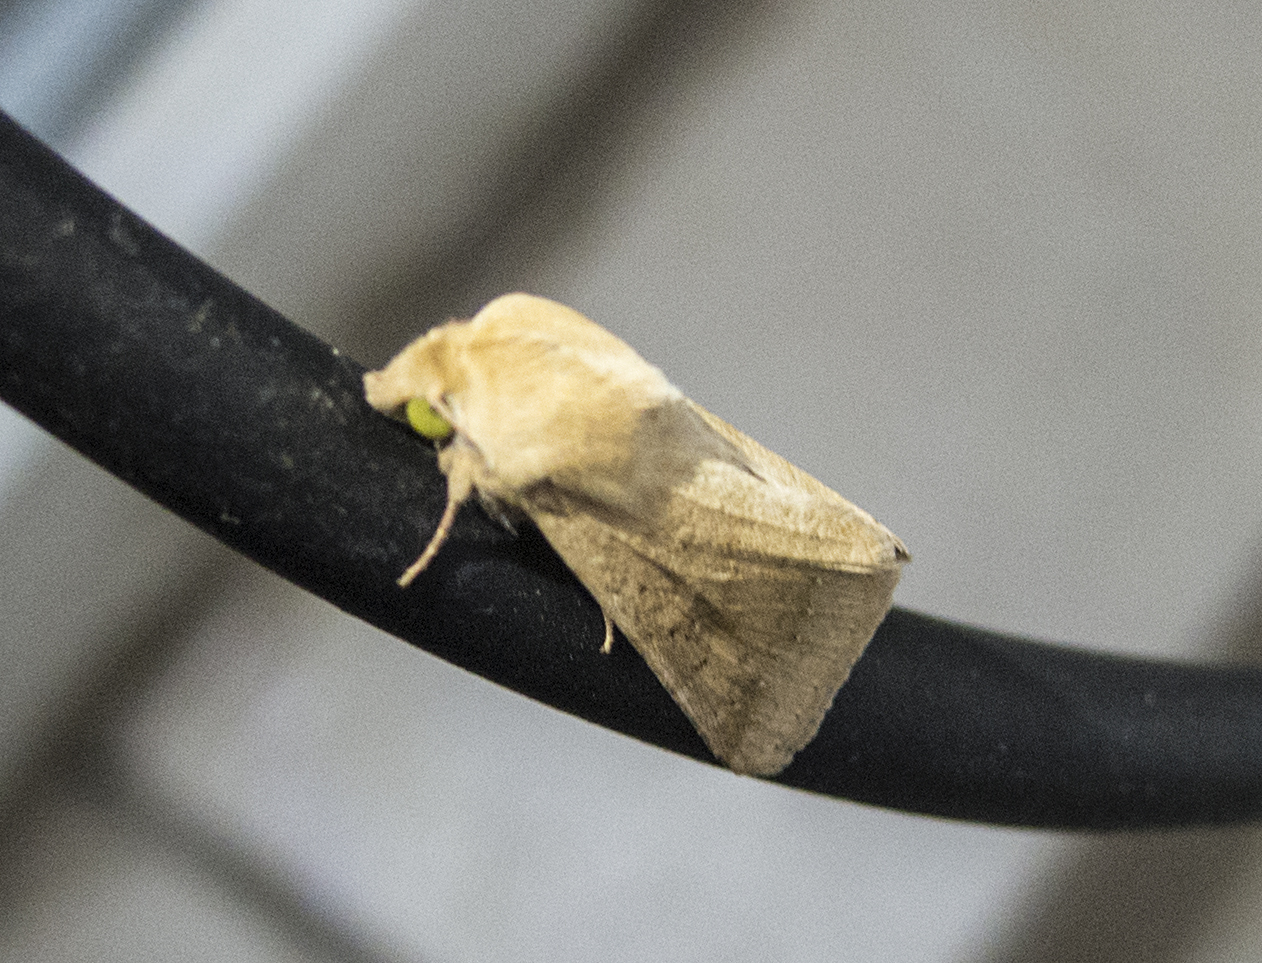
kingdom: Animalia
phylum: Arthropoda
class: Insecta
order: Lepidoptera
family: Noctuidae
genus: Helicoverpa
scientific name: Helicoverpa armigera
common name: Cotton bollworm
